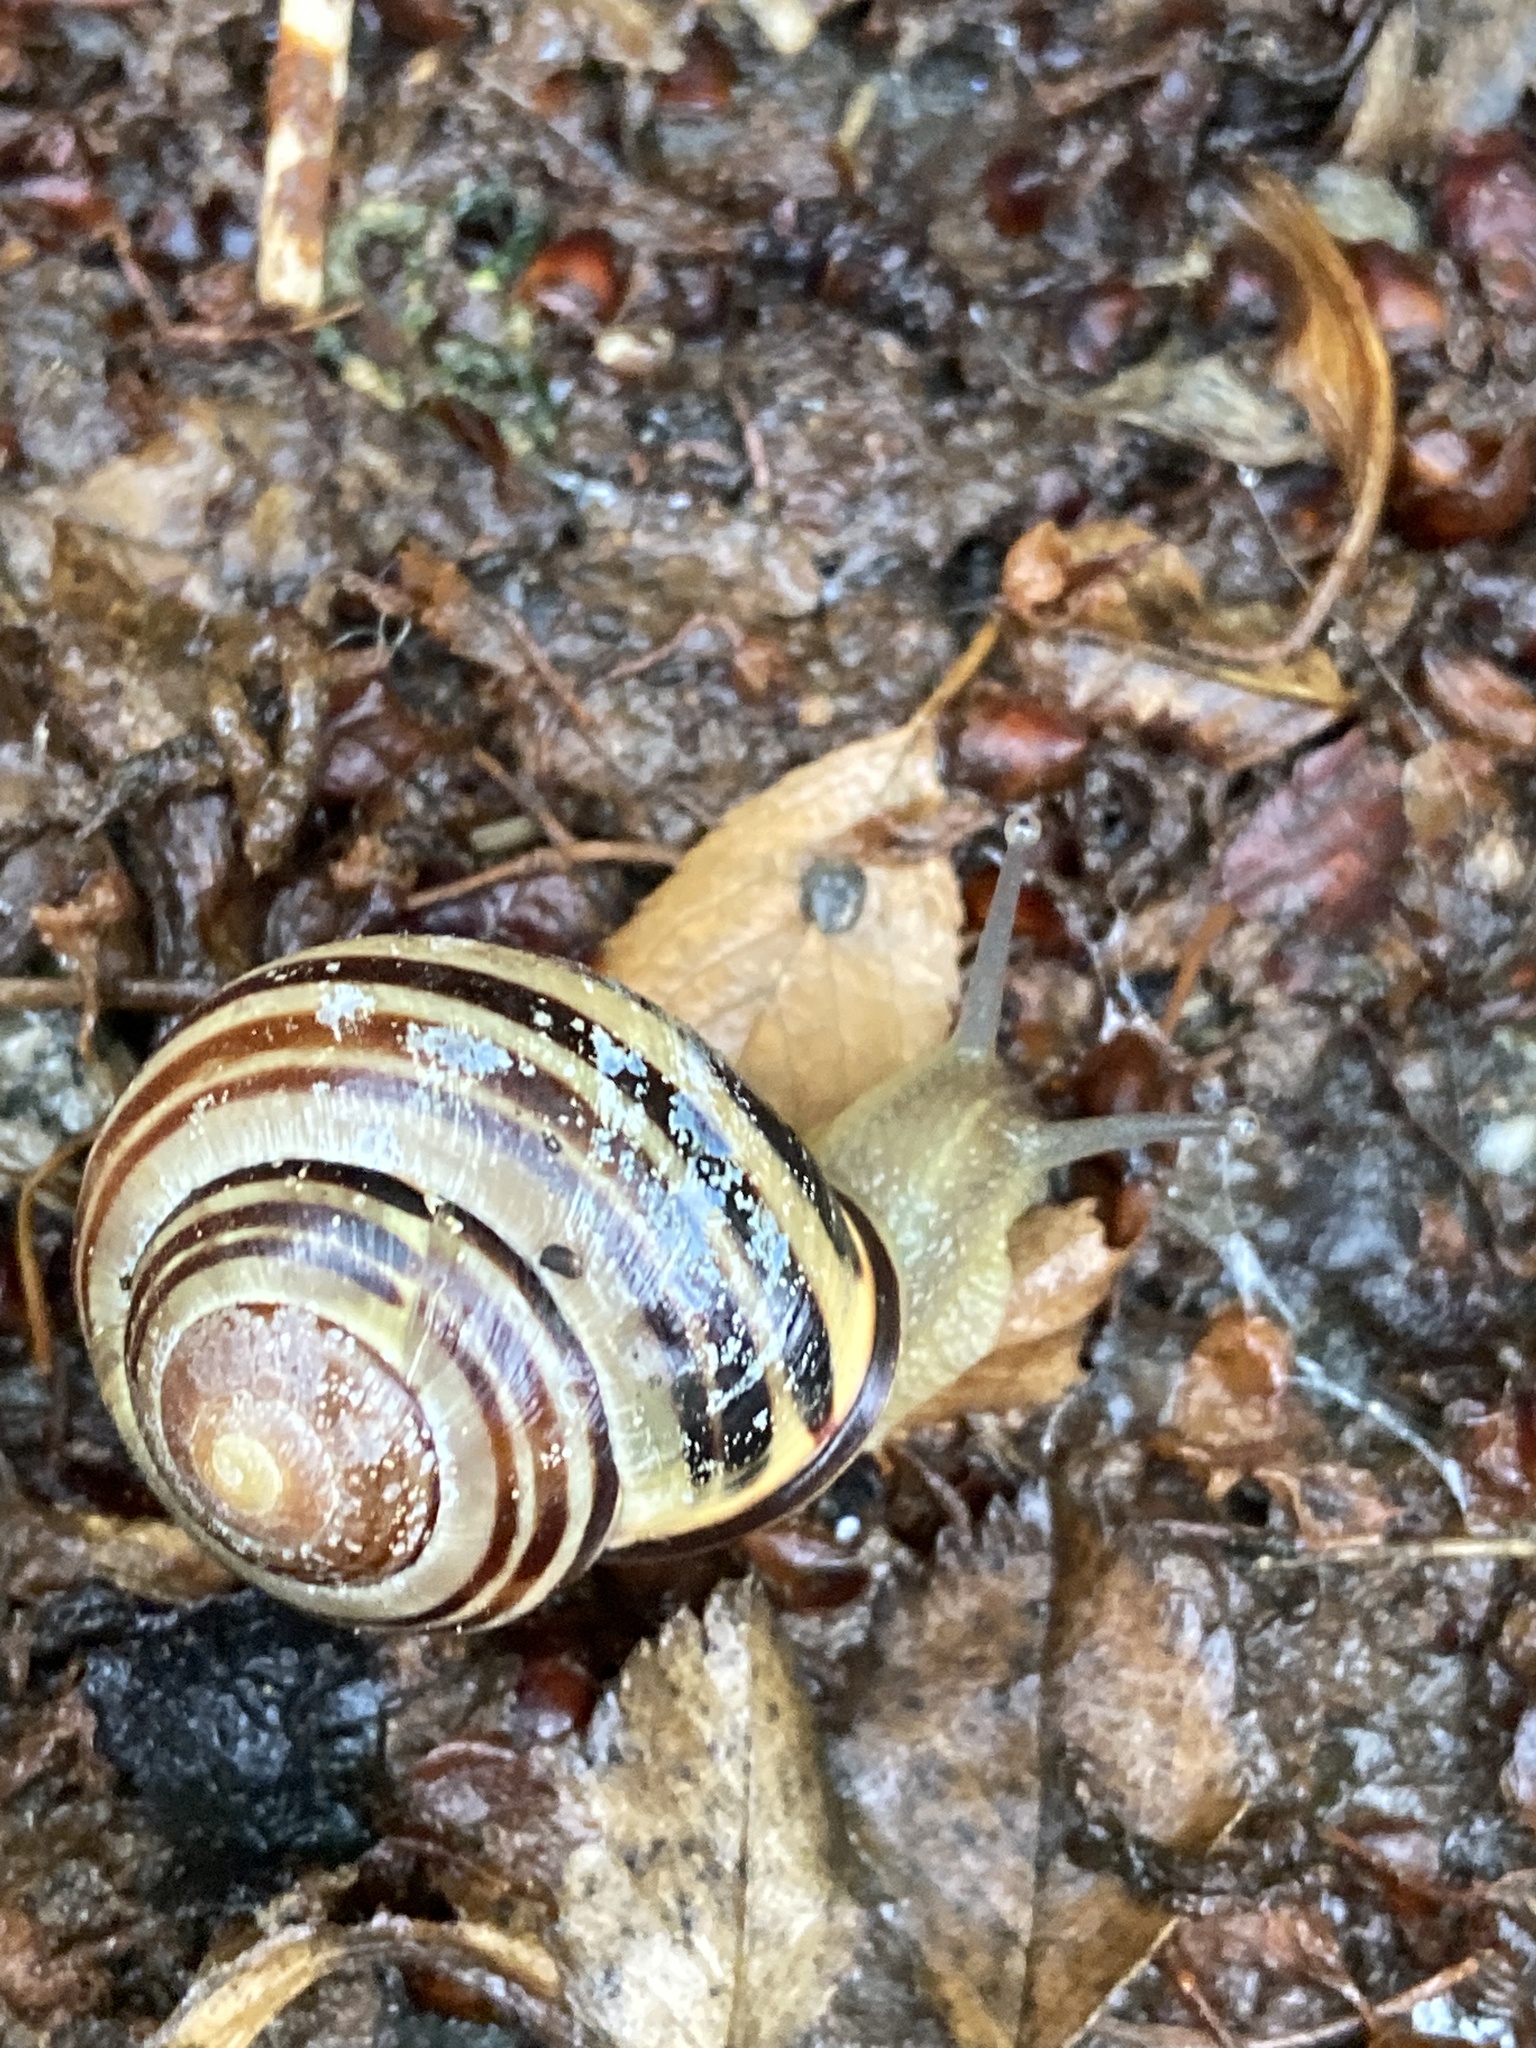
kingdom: Animalia
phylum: Mollusca
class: Gastropoda
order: Stylommatophora
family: Helicidae
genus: Cepaea
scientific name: Cepaea nemoralis
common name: Grovesnail
